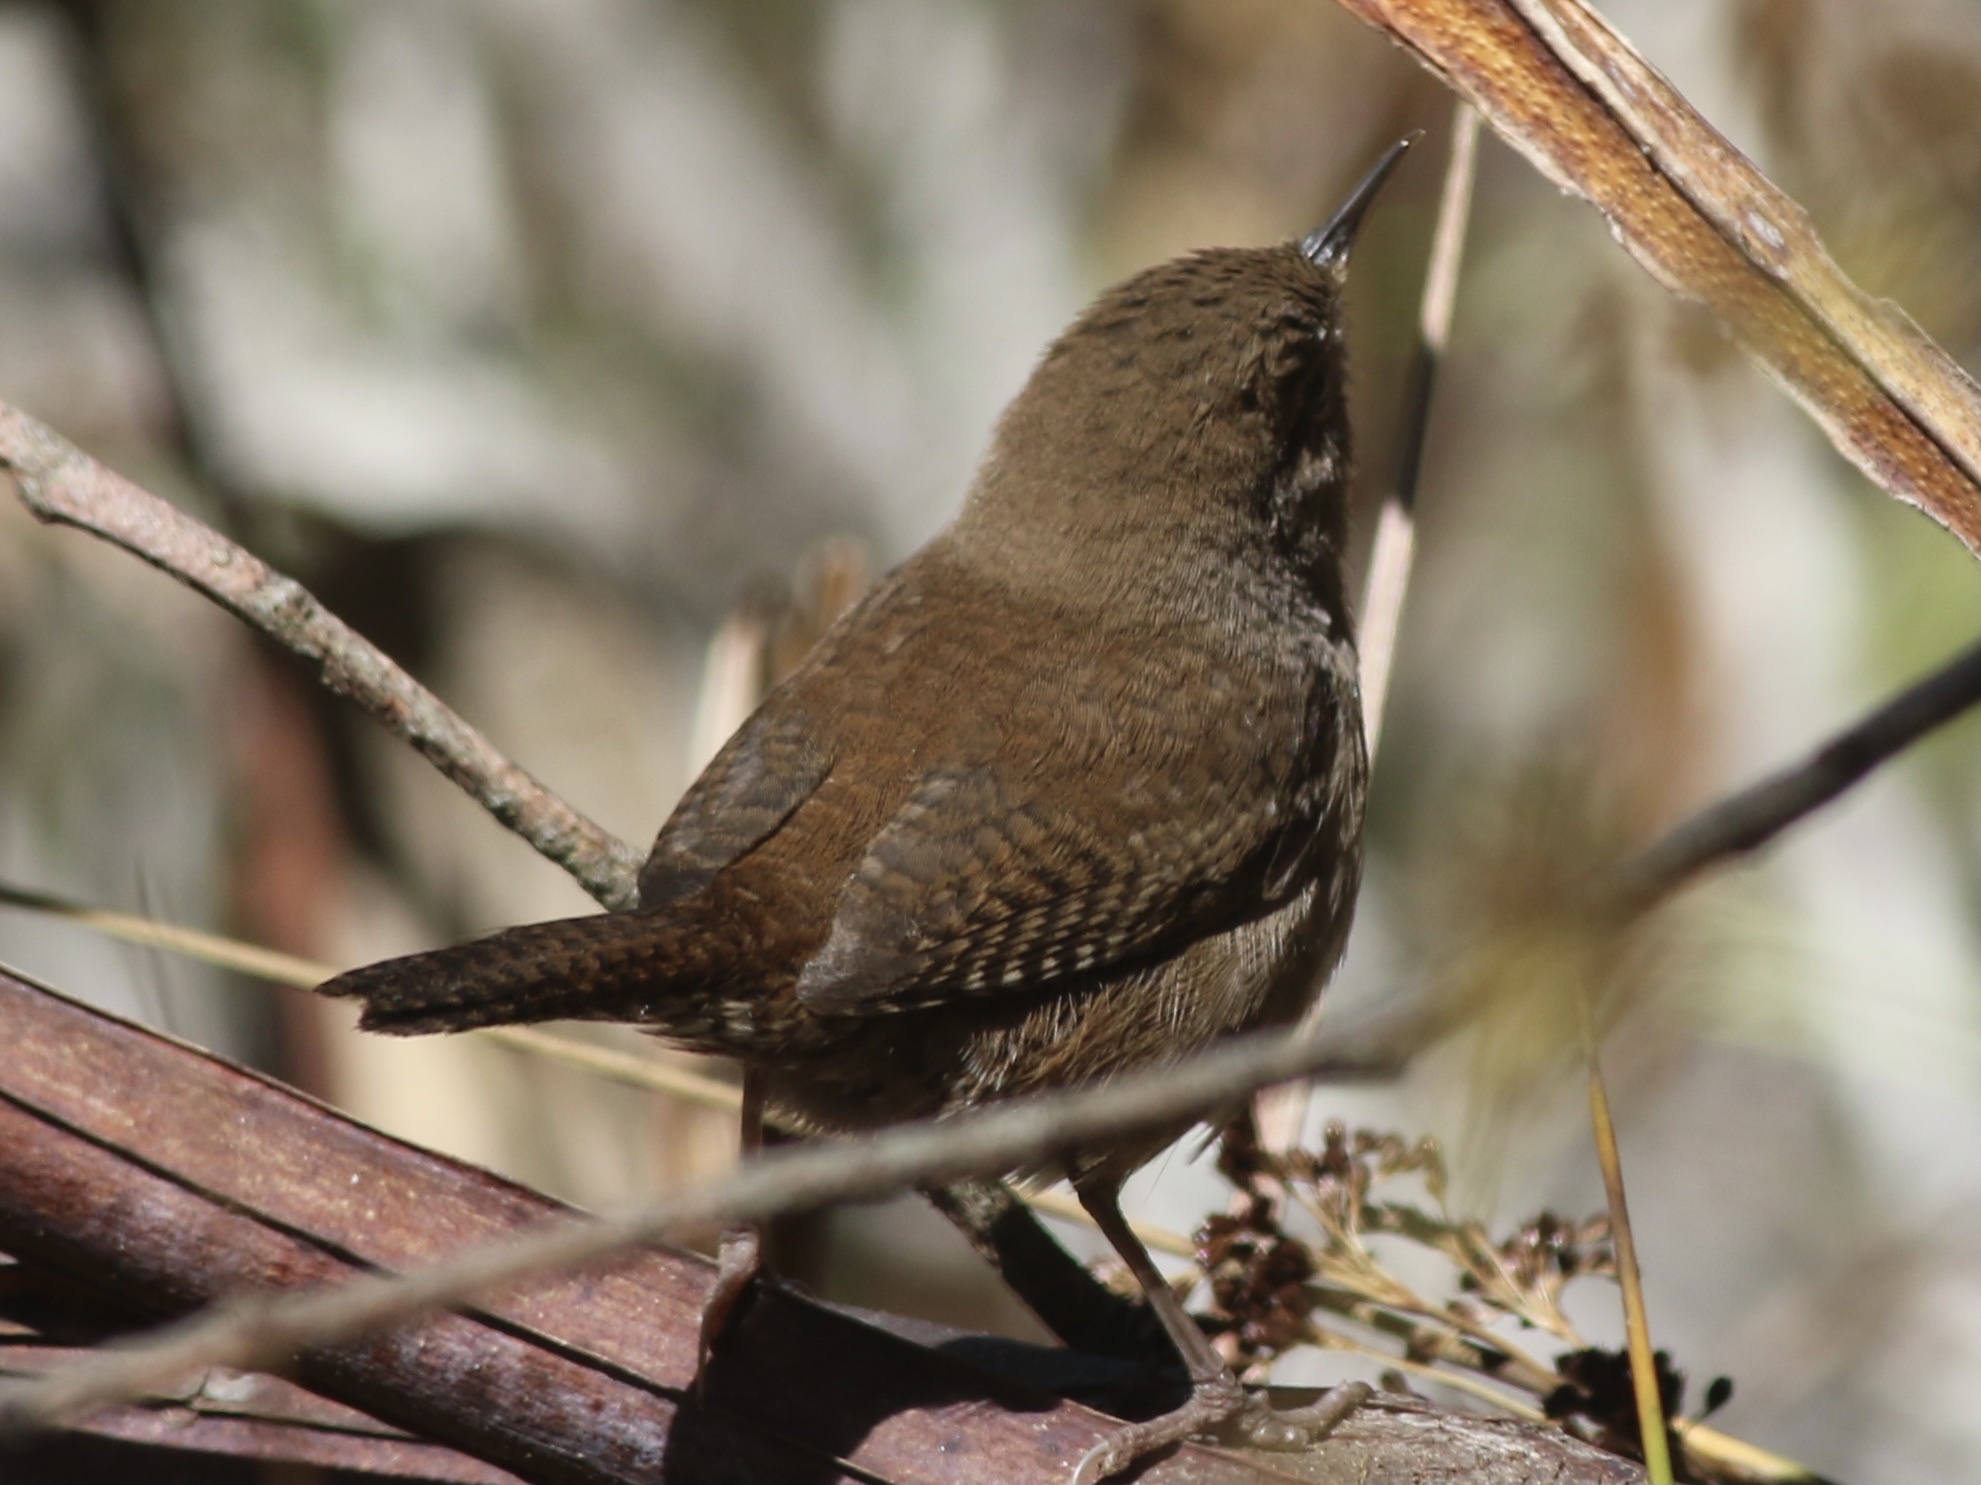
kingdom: Animalia
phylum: Chordata
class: Aves
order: Passeriformes
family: Troglodytidae
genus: Troglodytes
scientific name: Troglodytes aedon
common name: House wren
